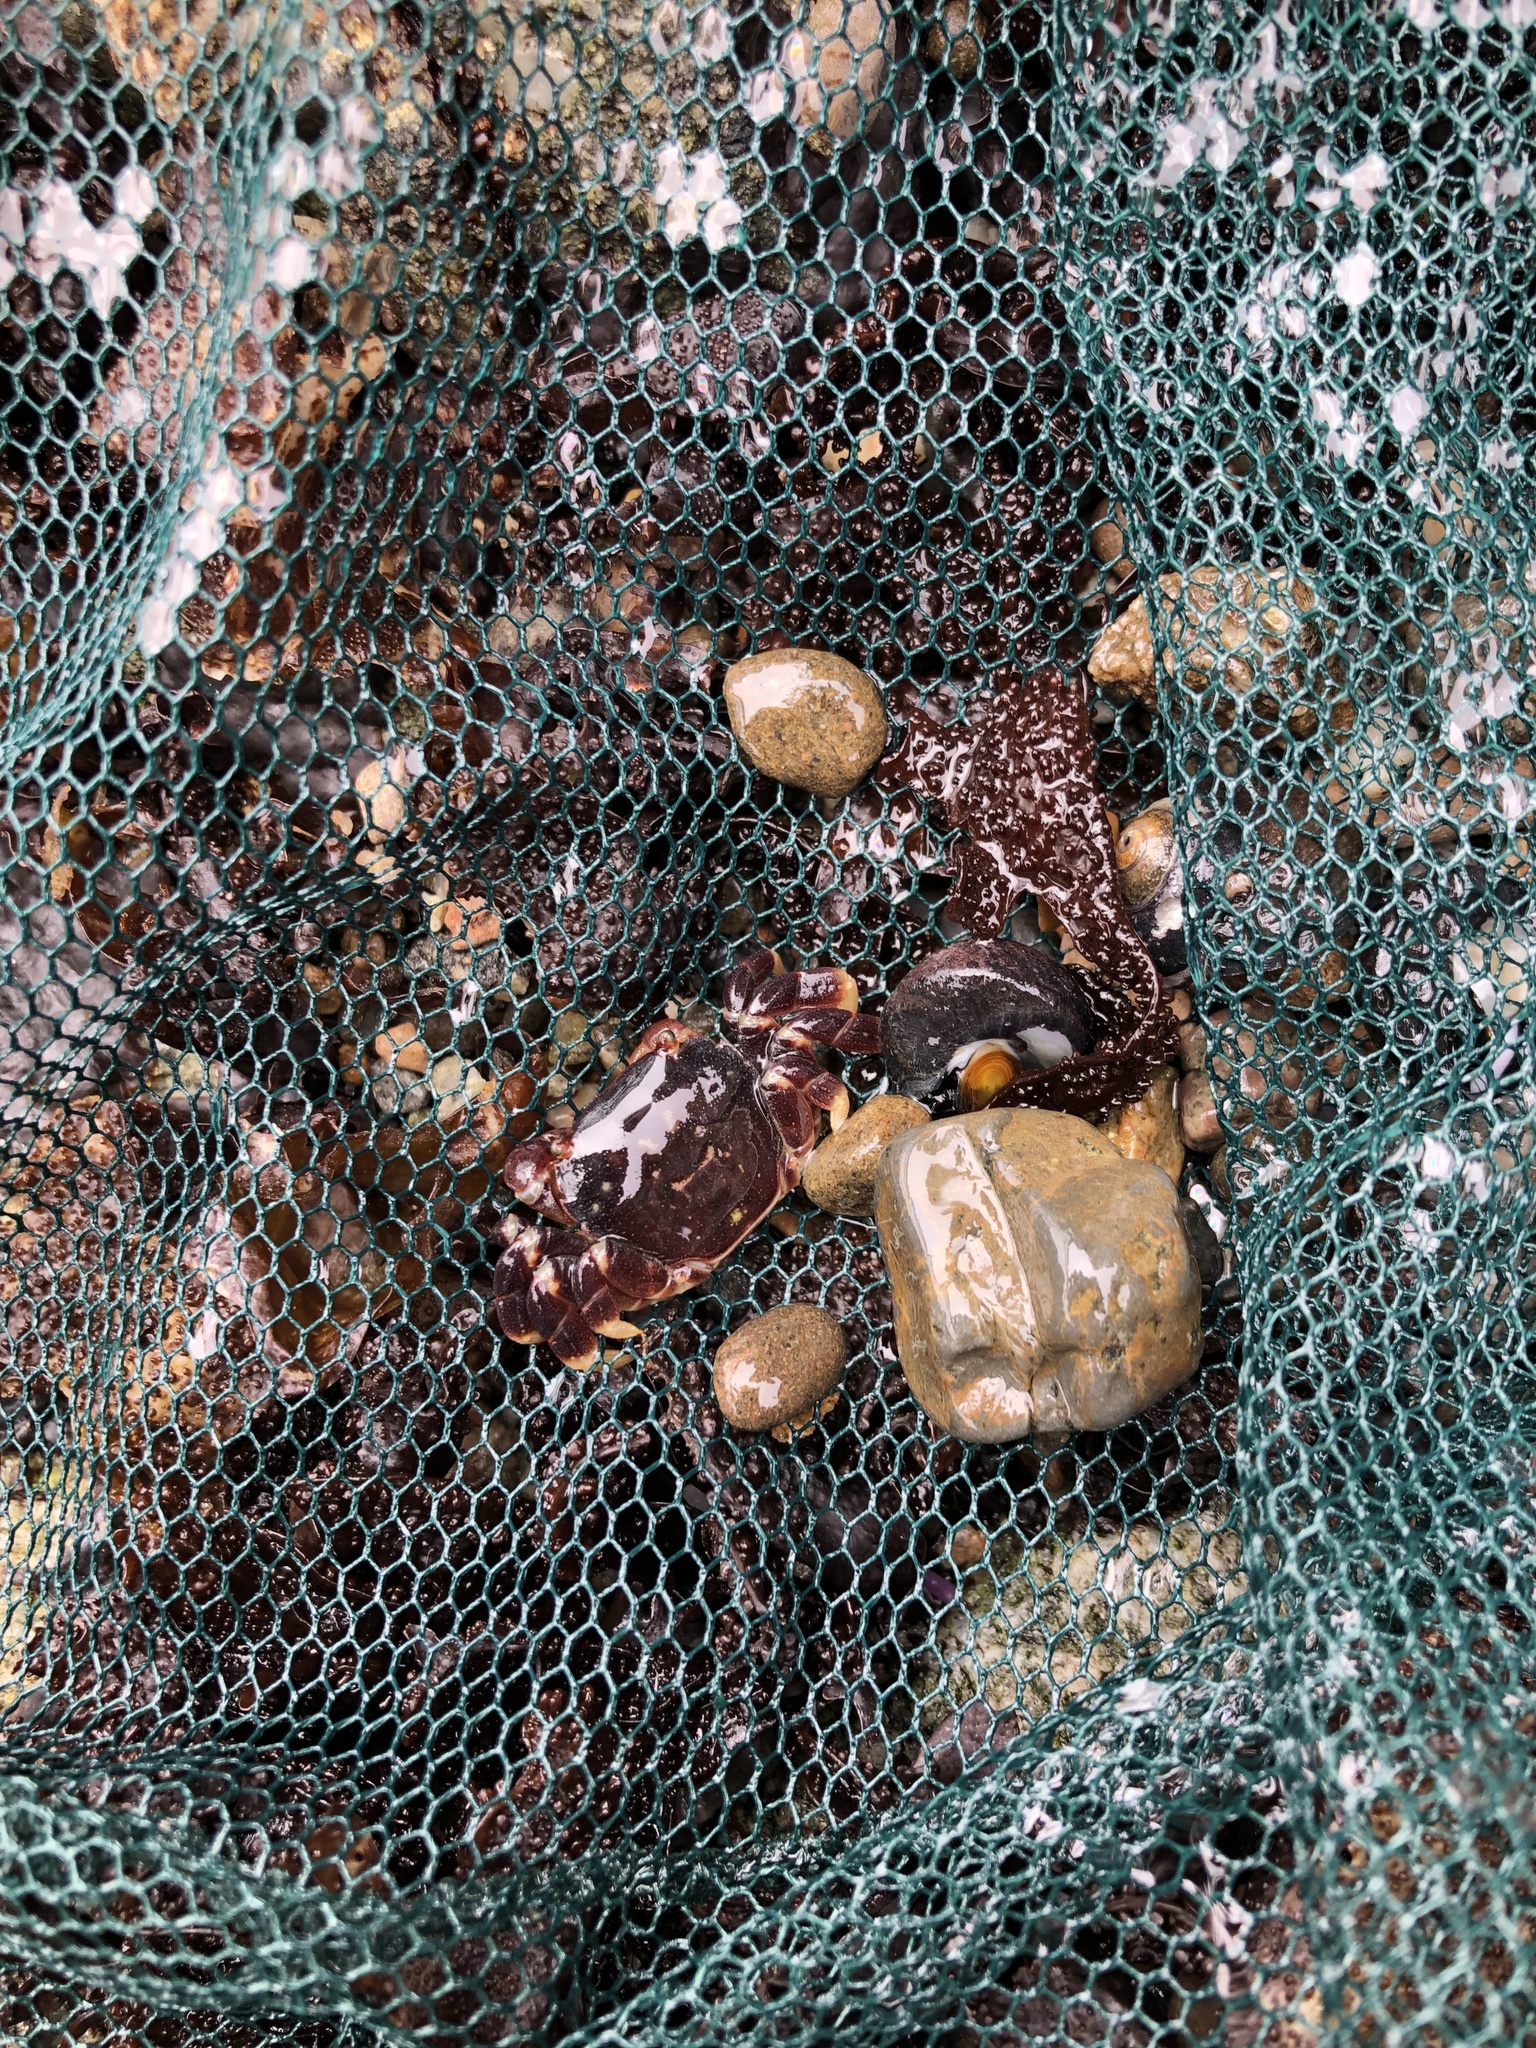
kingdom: Animalia
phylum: Arthropoda
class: Malacostraca
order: Decapoda
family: Varunidae
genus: Hemigrapsus
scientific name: Hemigrapsus nudus
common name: Purple shore crab
